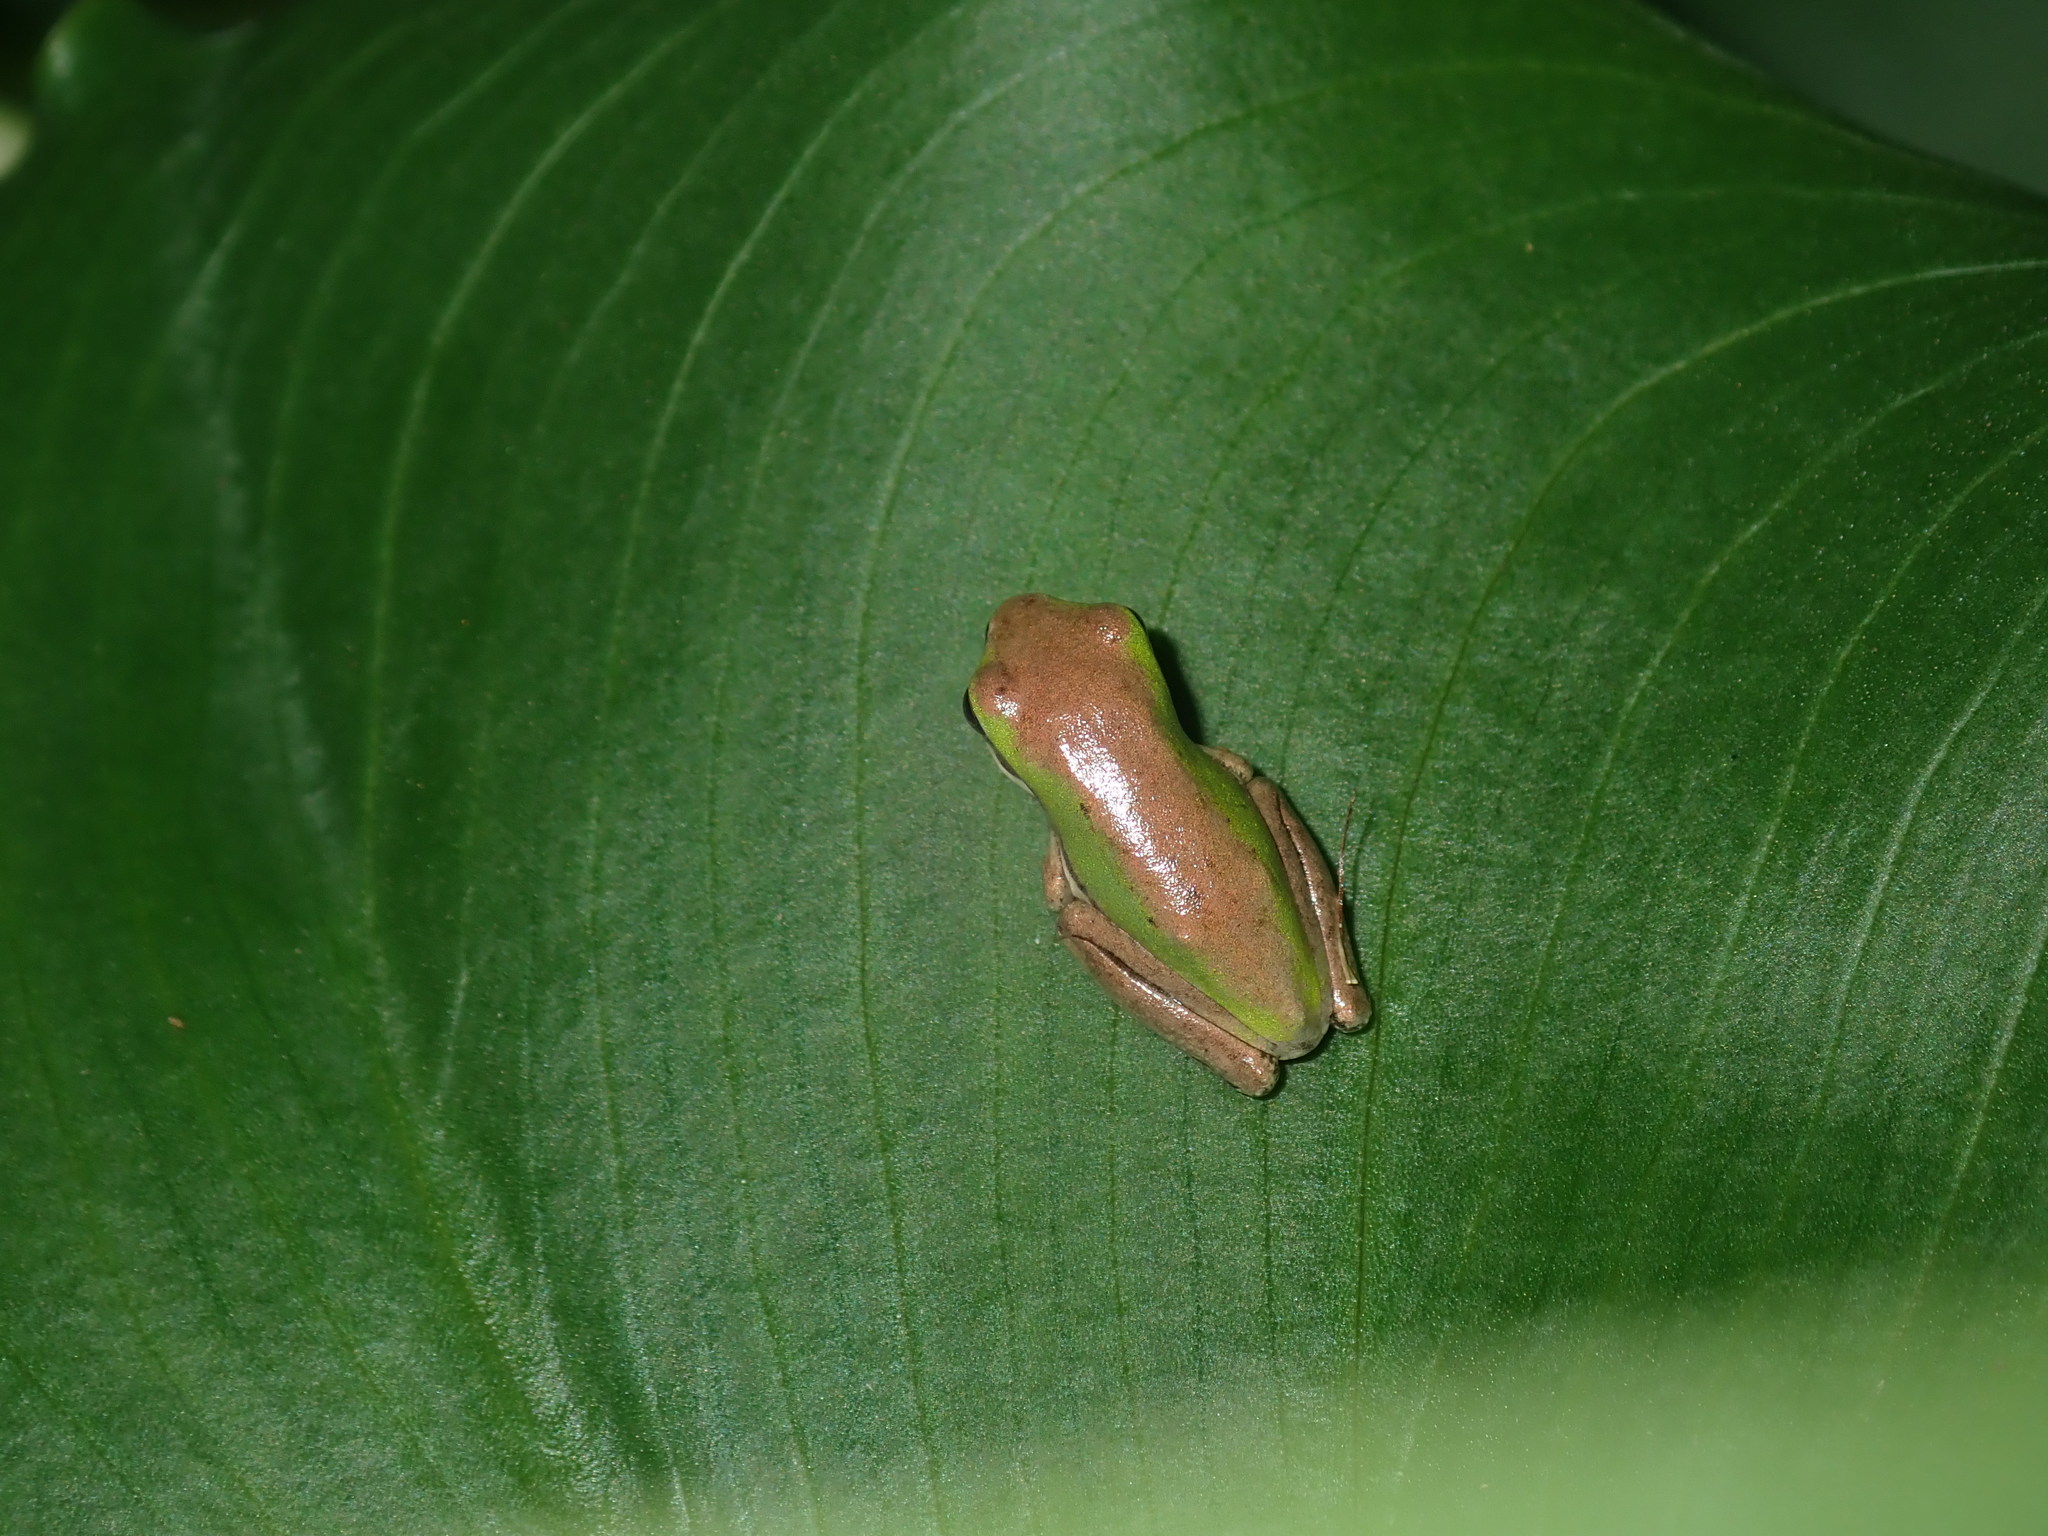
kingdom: Animalia
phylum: Chordata
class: Amphibia
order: Anura
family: Pelodryadidae
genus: Litoria
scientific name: Litoria fallax
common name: Eastern dwarf treefrog
